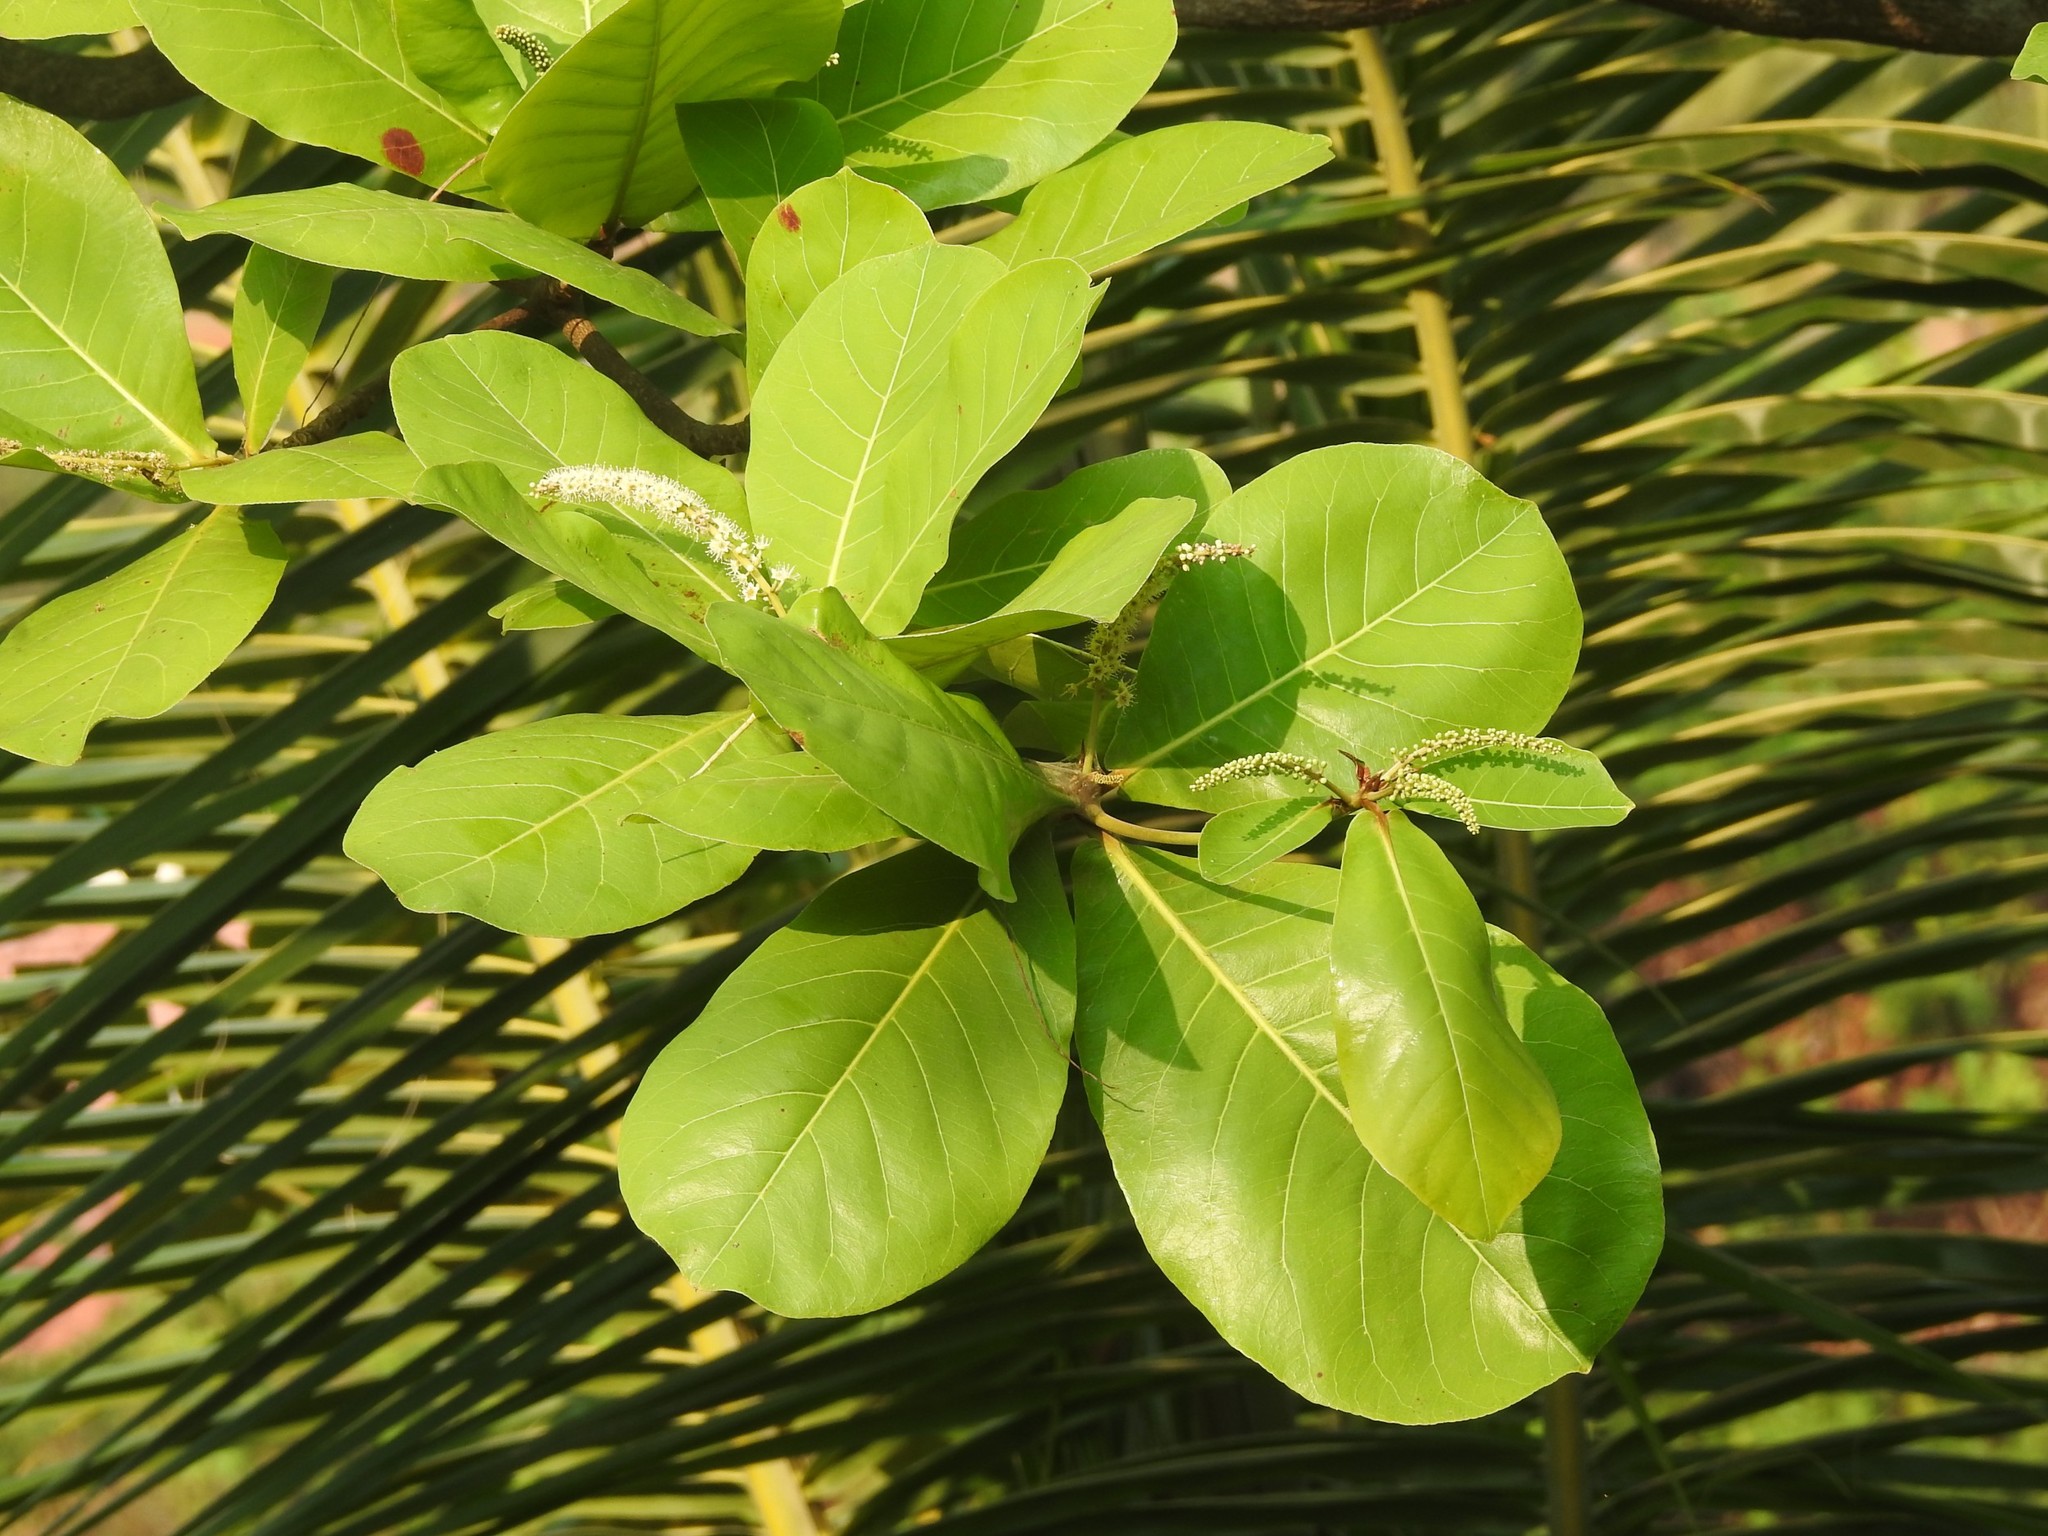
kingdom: Plantae
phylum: Tracheophyta
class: Magnoliopsida
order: Myrtales
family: Combretaceae
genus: Terminalia
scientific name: Terminalia catappa
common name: Tropical almond
